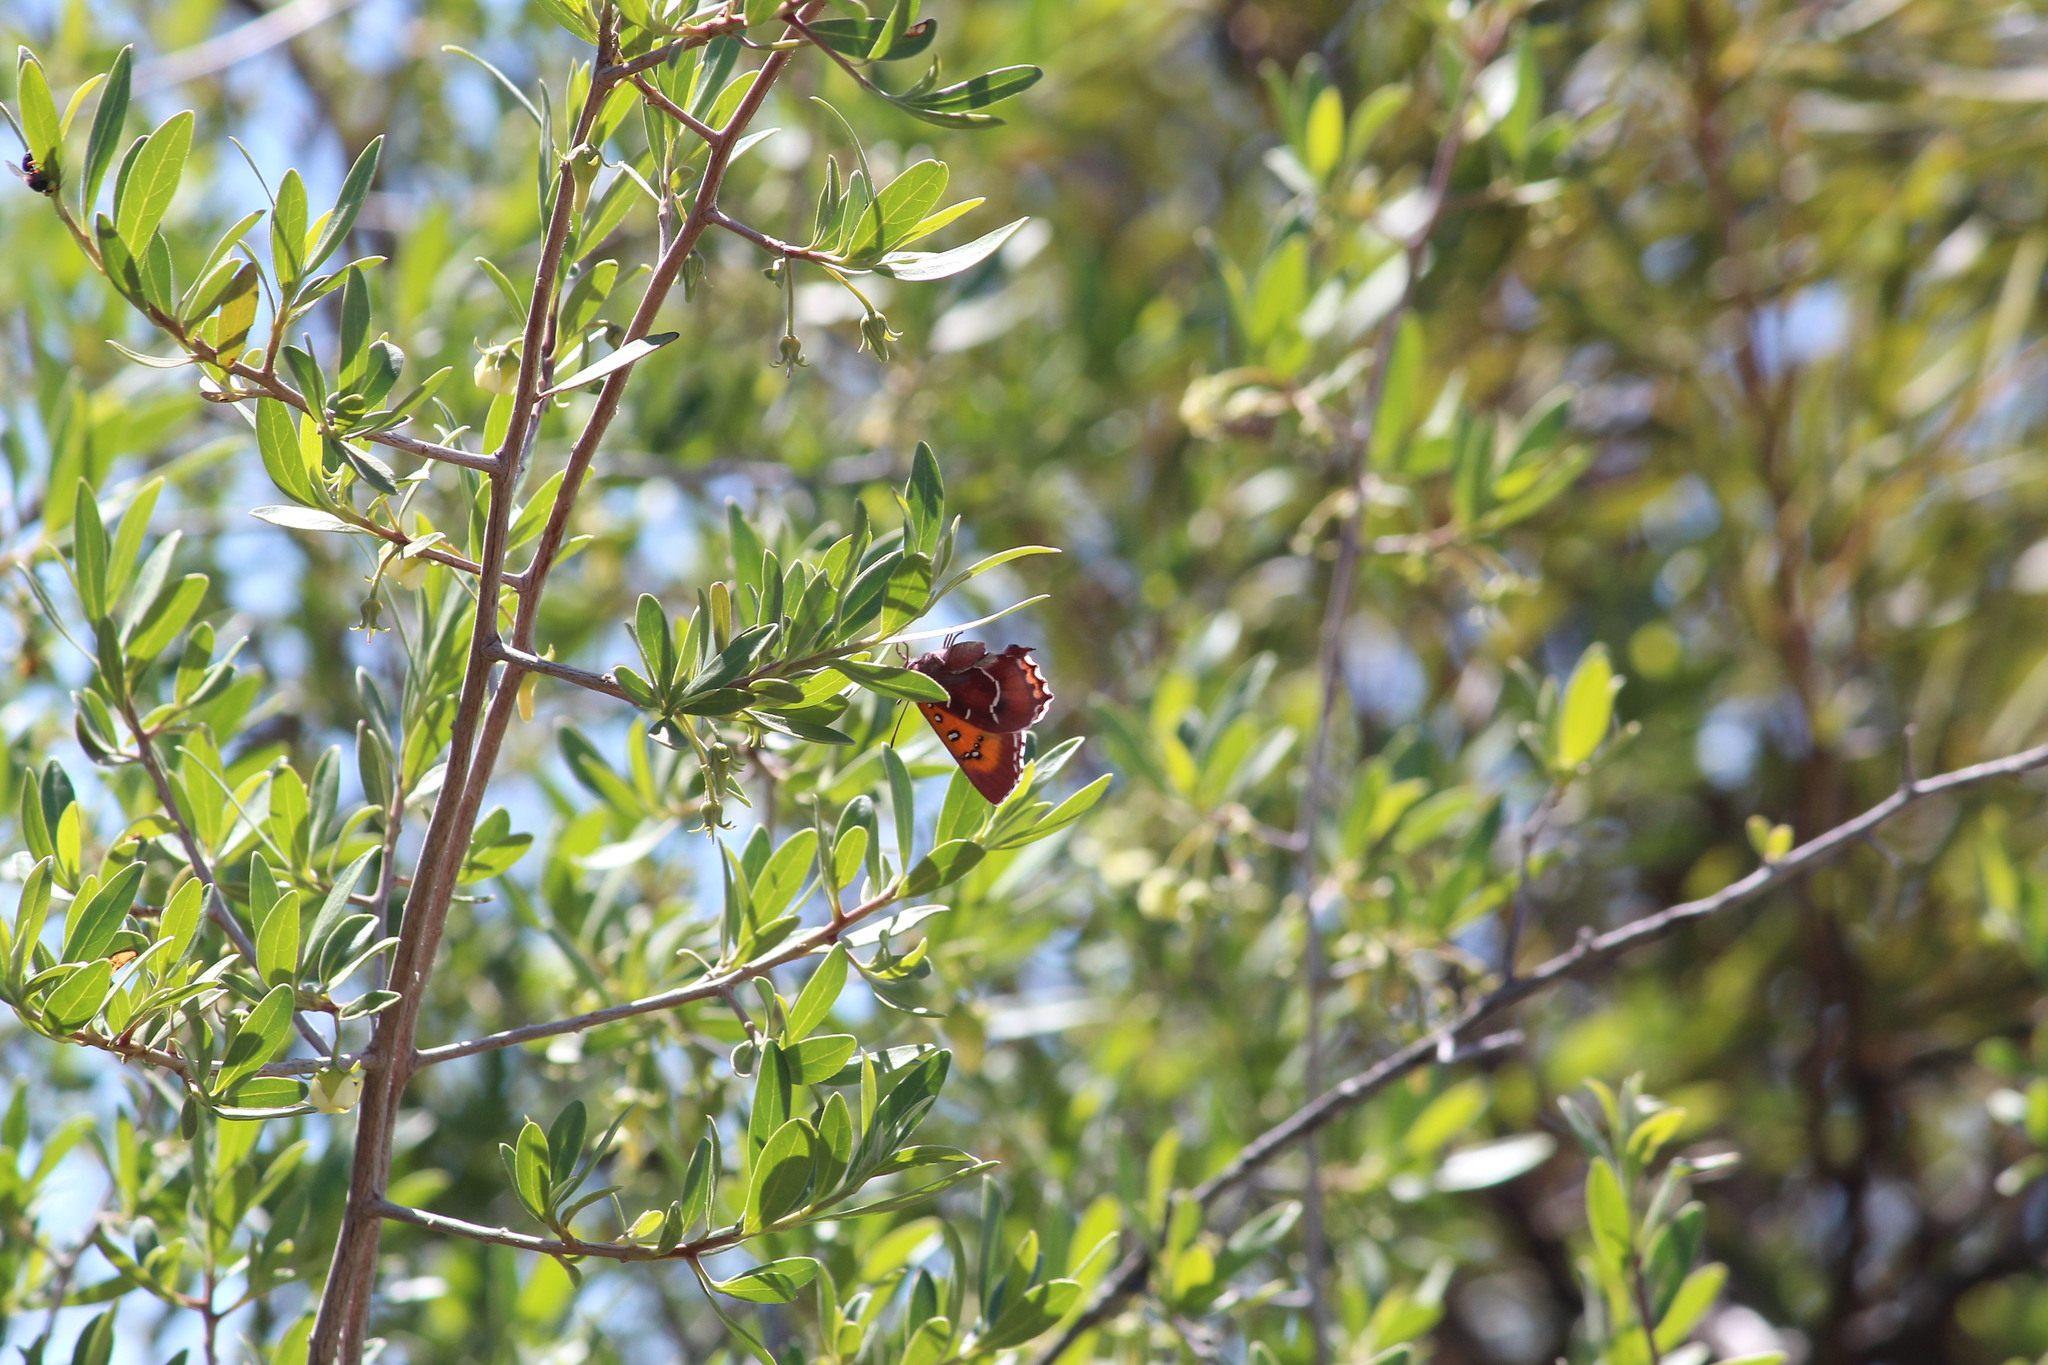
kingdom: Animalia
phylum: Arthropoda
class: Insecta
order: Lepidoptera
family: Lycaenidae
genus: Tylopaedia
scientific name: Tylopaedia sardonyx
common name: King copper
